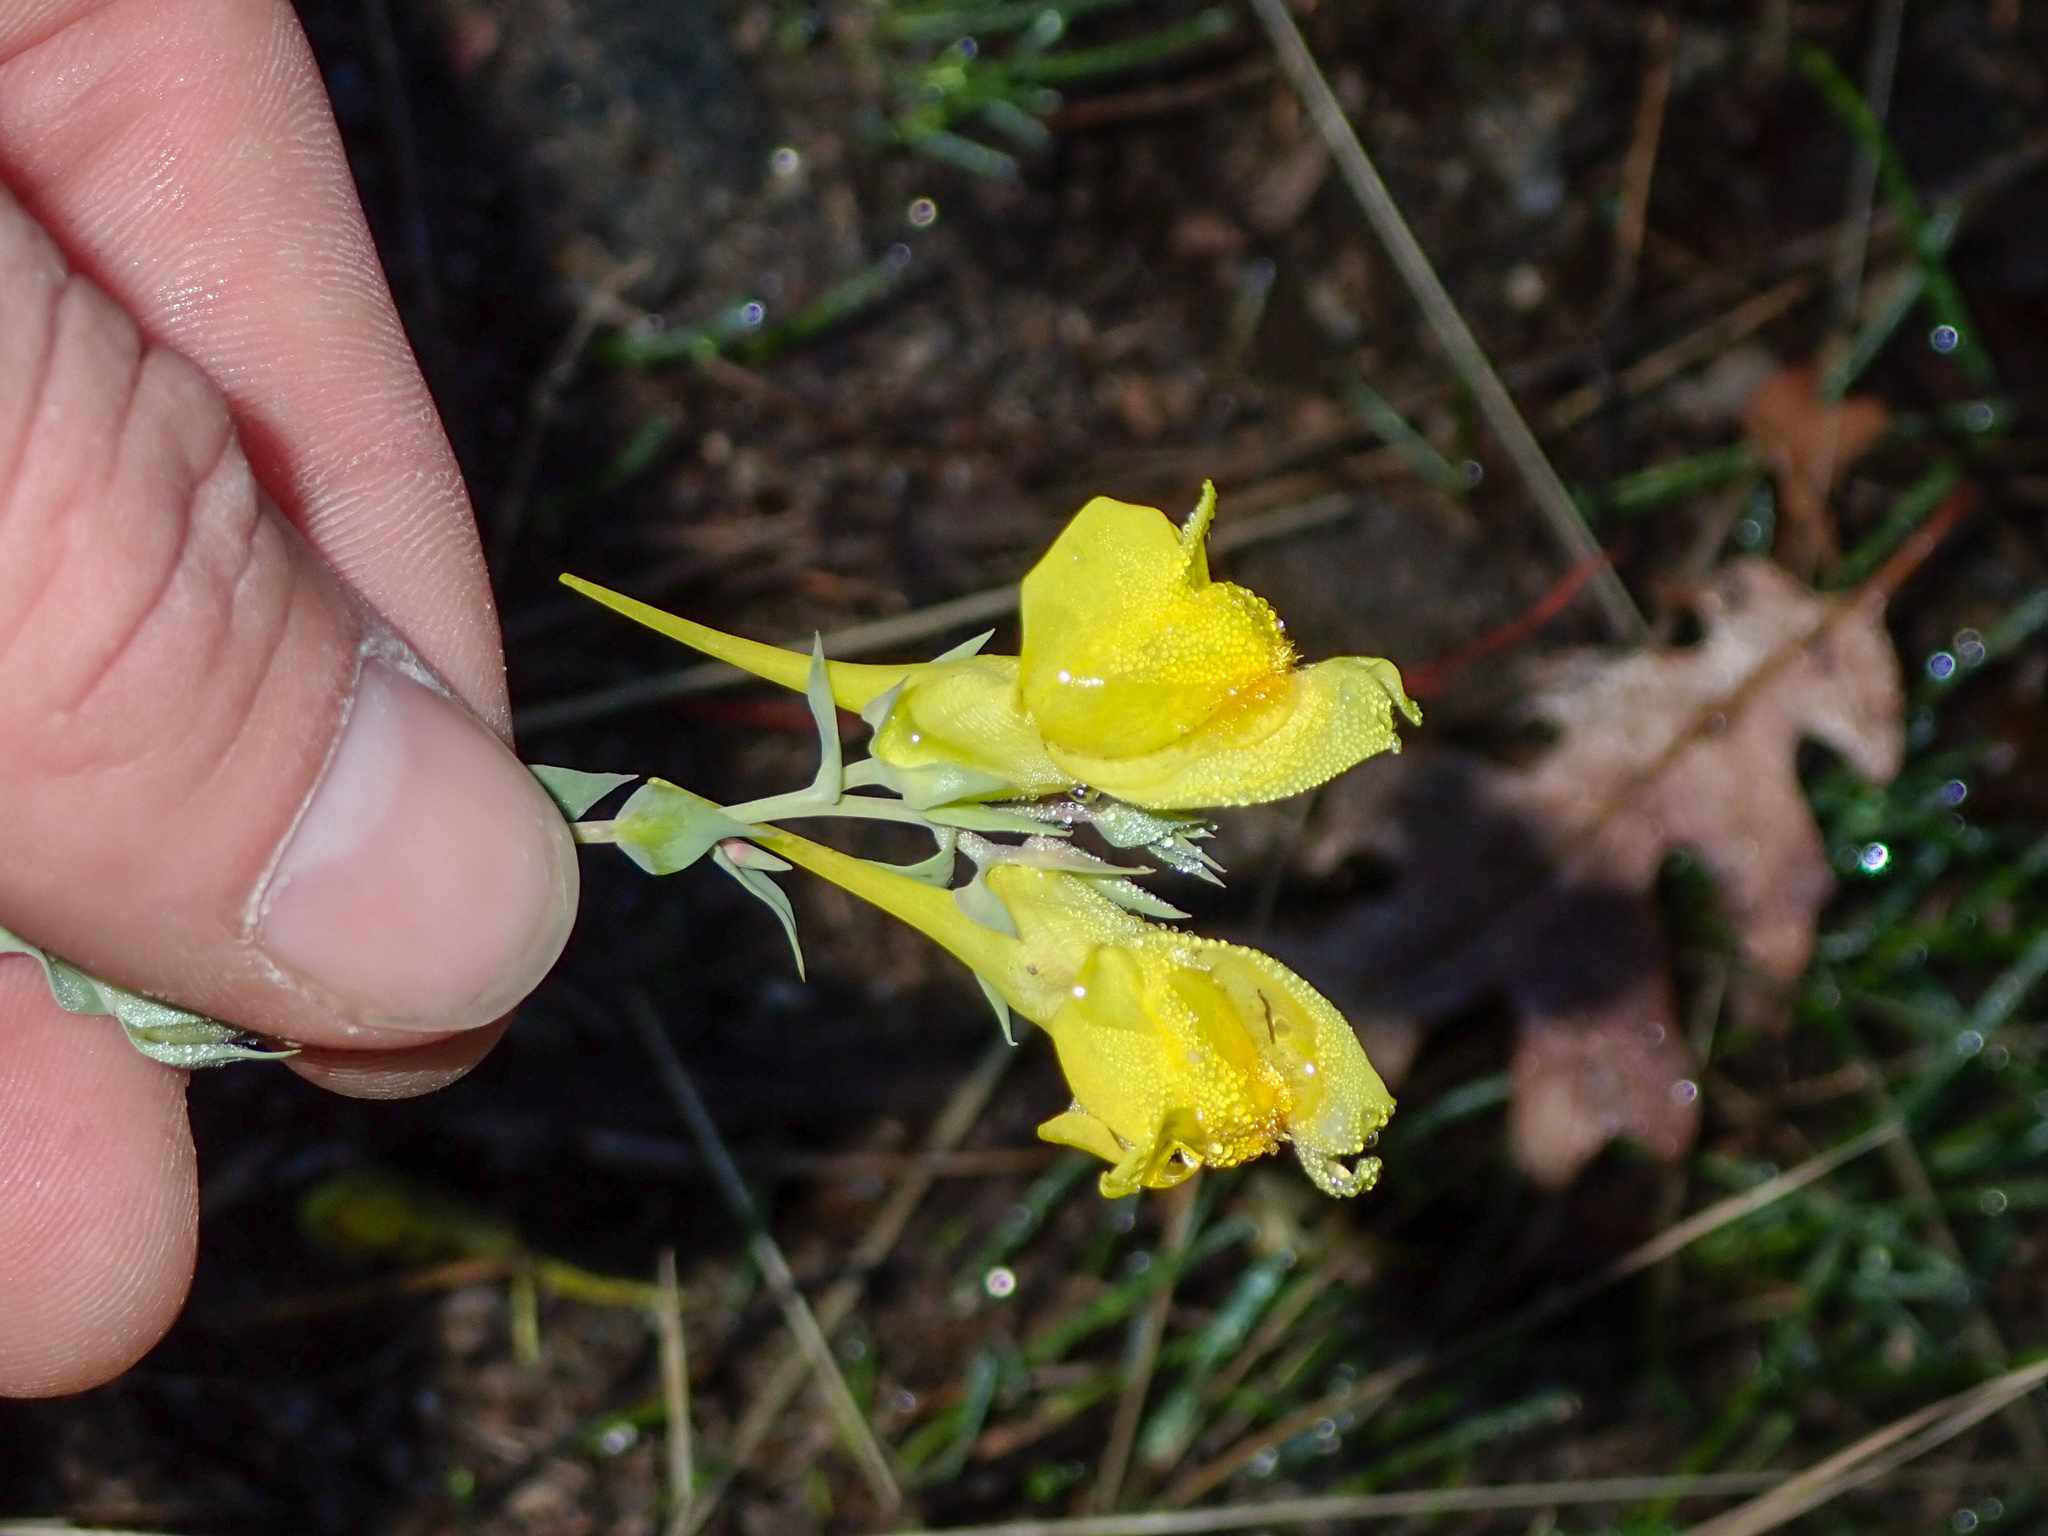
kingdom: Plantae
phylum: Tracheophyta
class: Magnoliopsida
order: Lamiales
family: Plantaginaceae
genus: Linaria
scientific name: Linaria dalmatica
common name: Dalmatian toadflax
